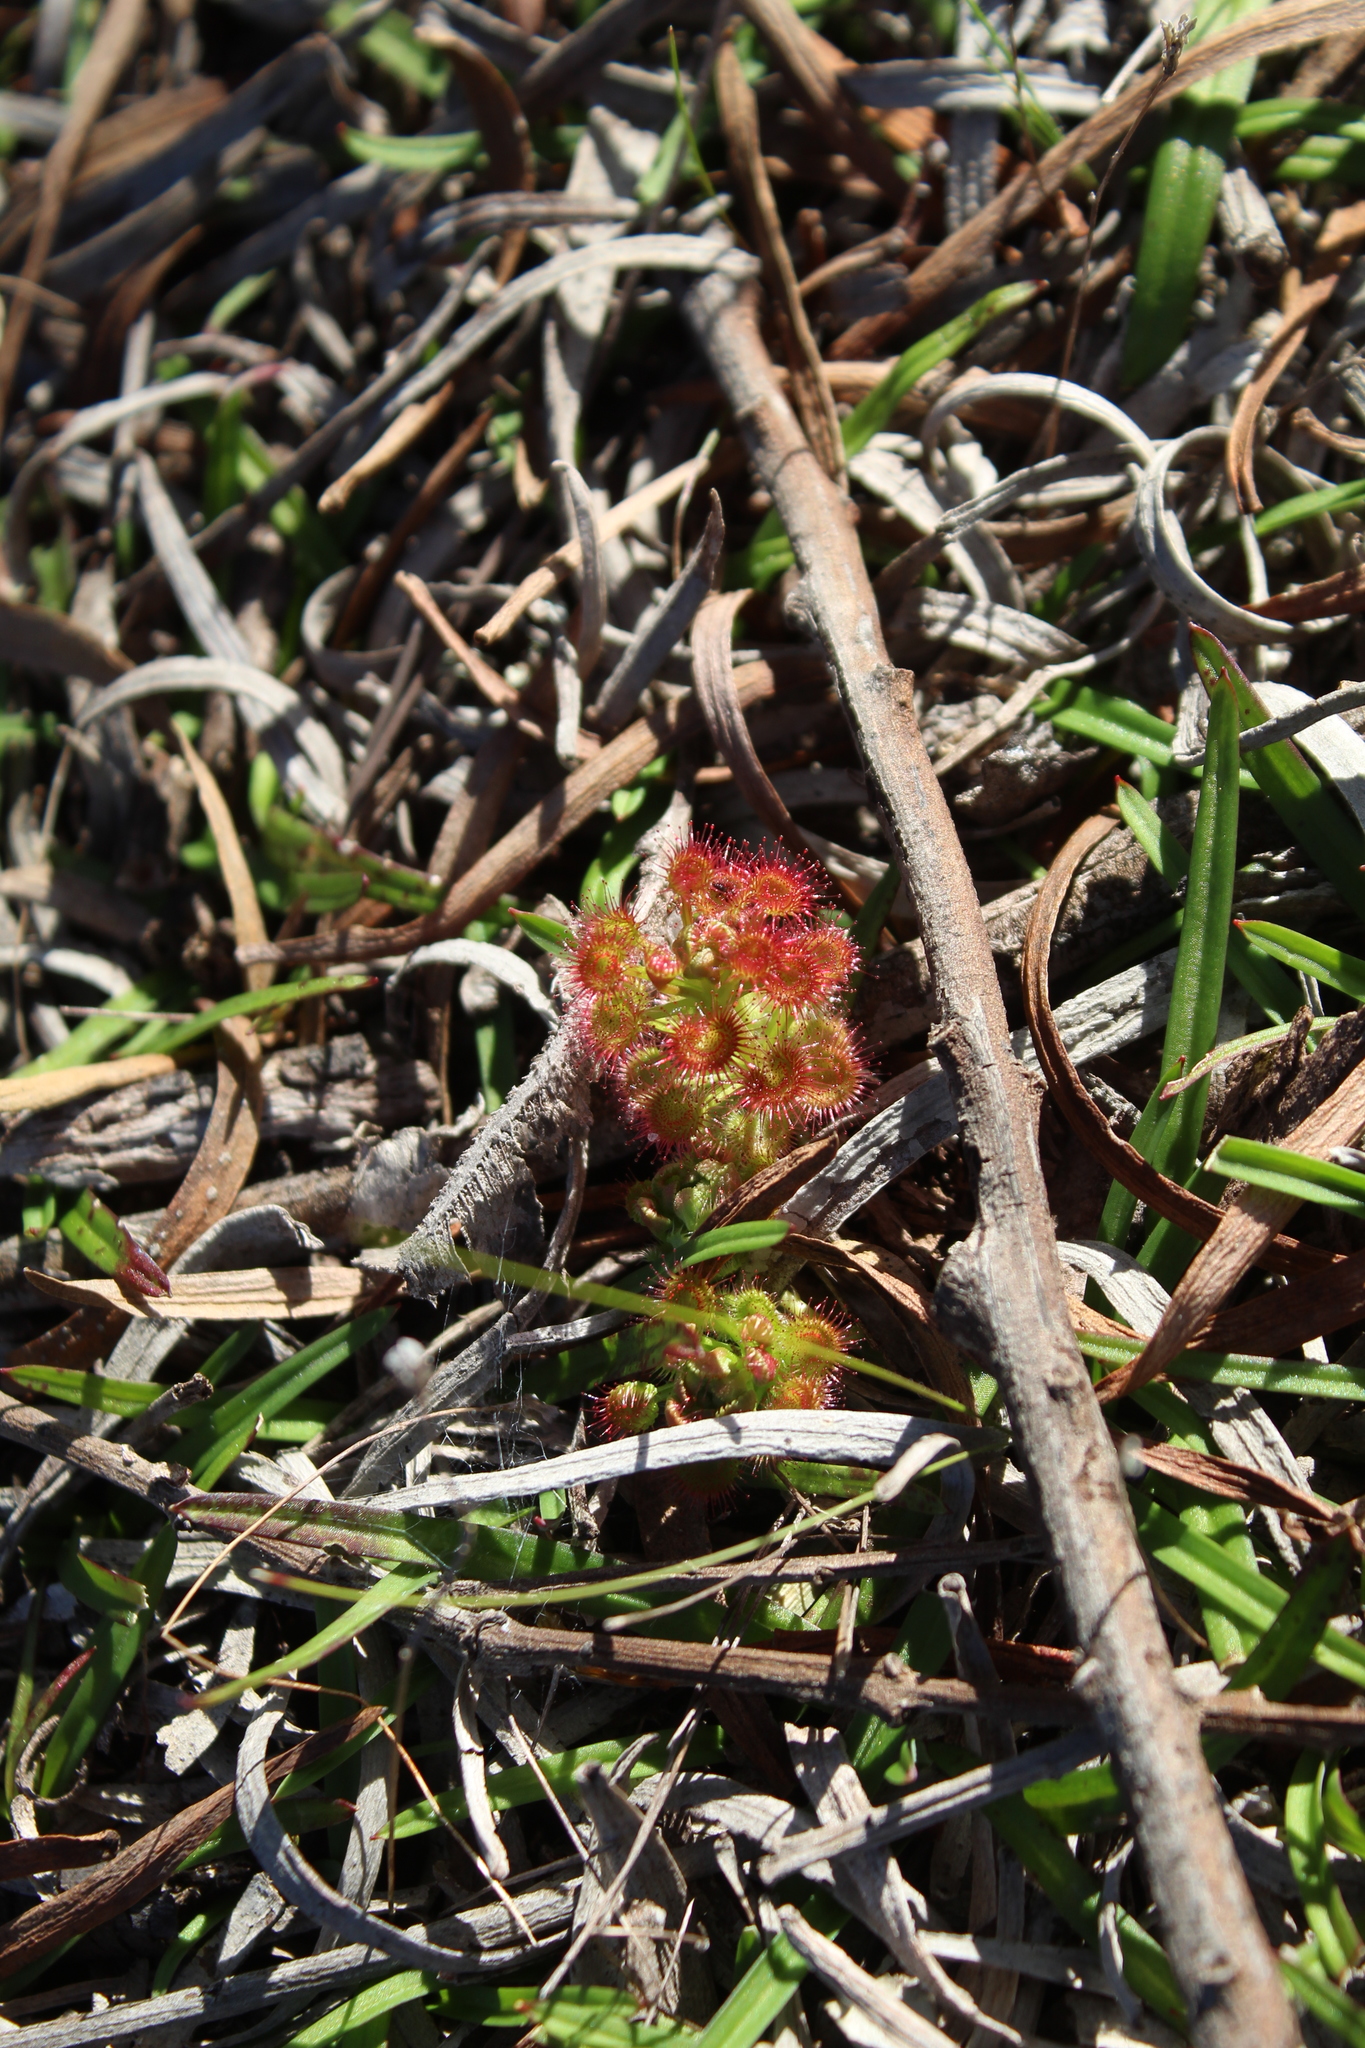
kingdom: Plantae
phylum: Tracheophyta
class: Magnoliopsida
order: Caryophyllales
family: Droseraceae
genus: Drosera
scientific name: Drosera stolonifera
